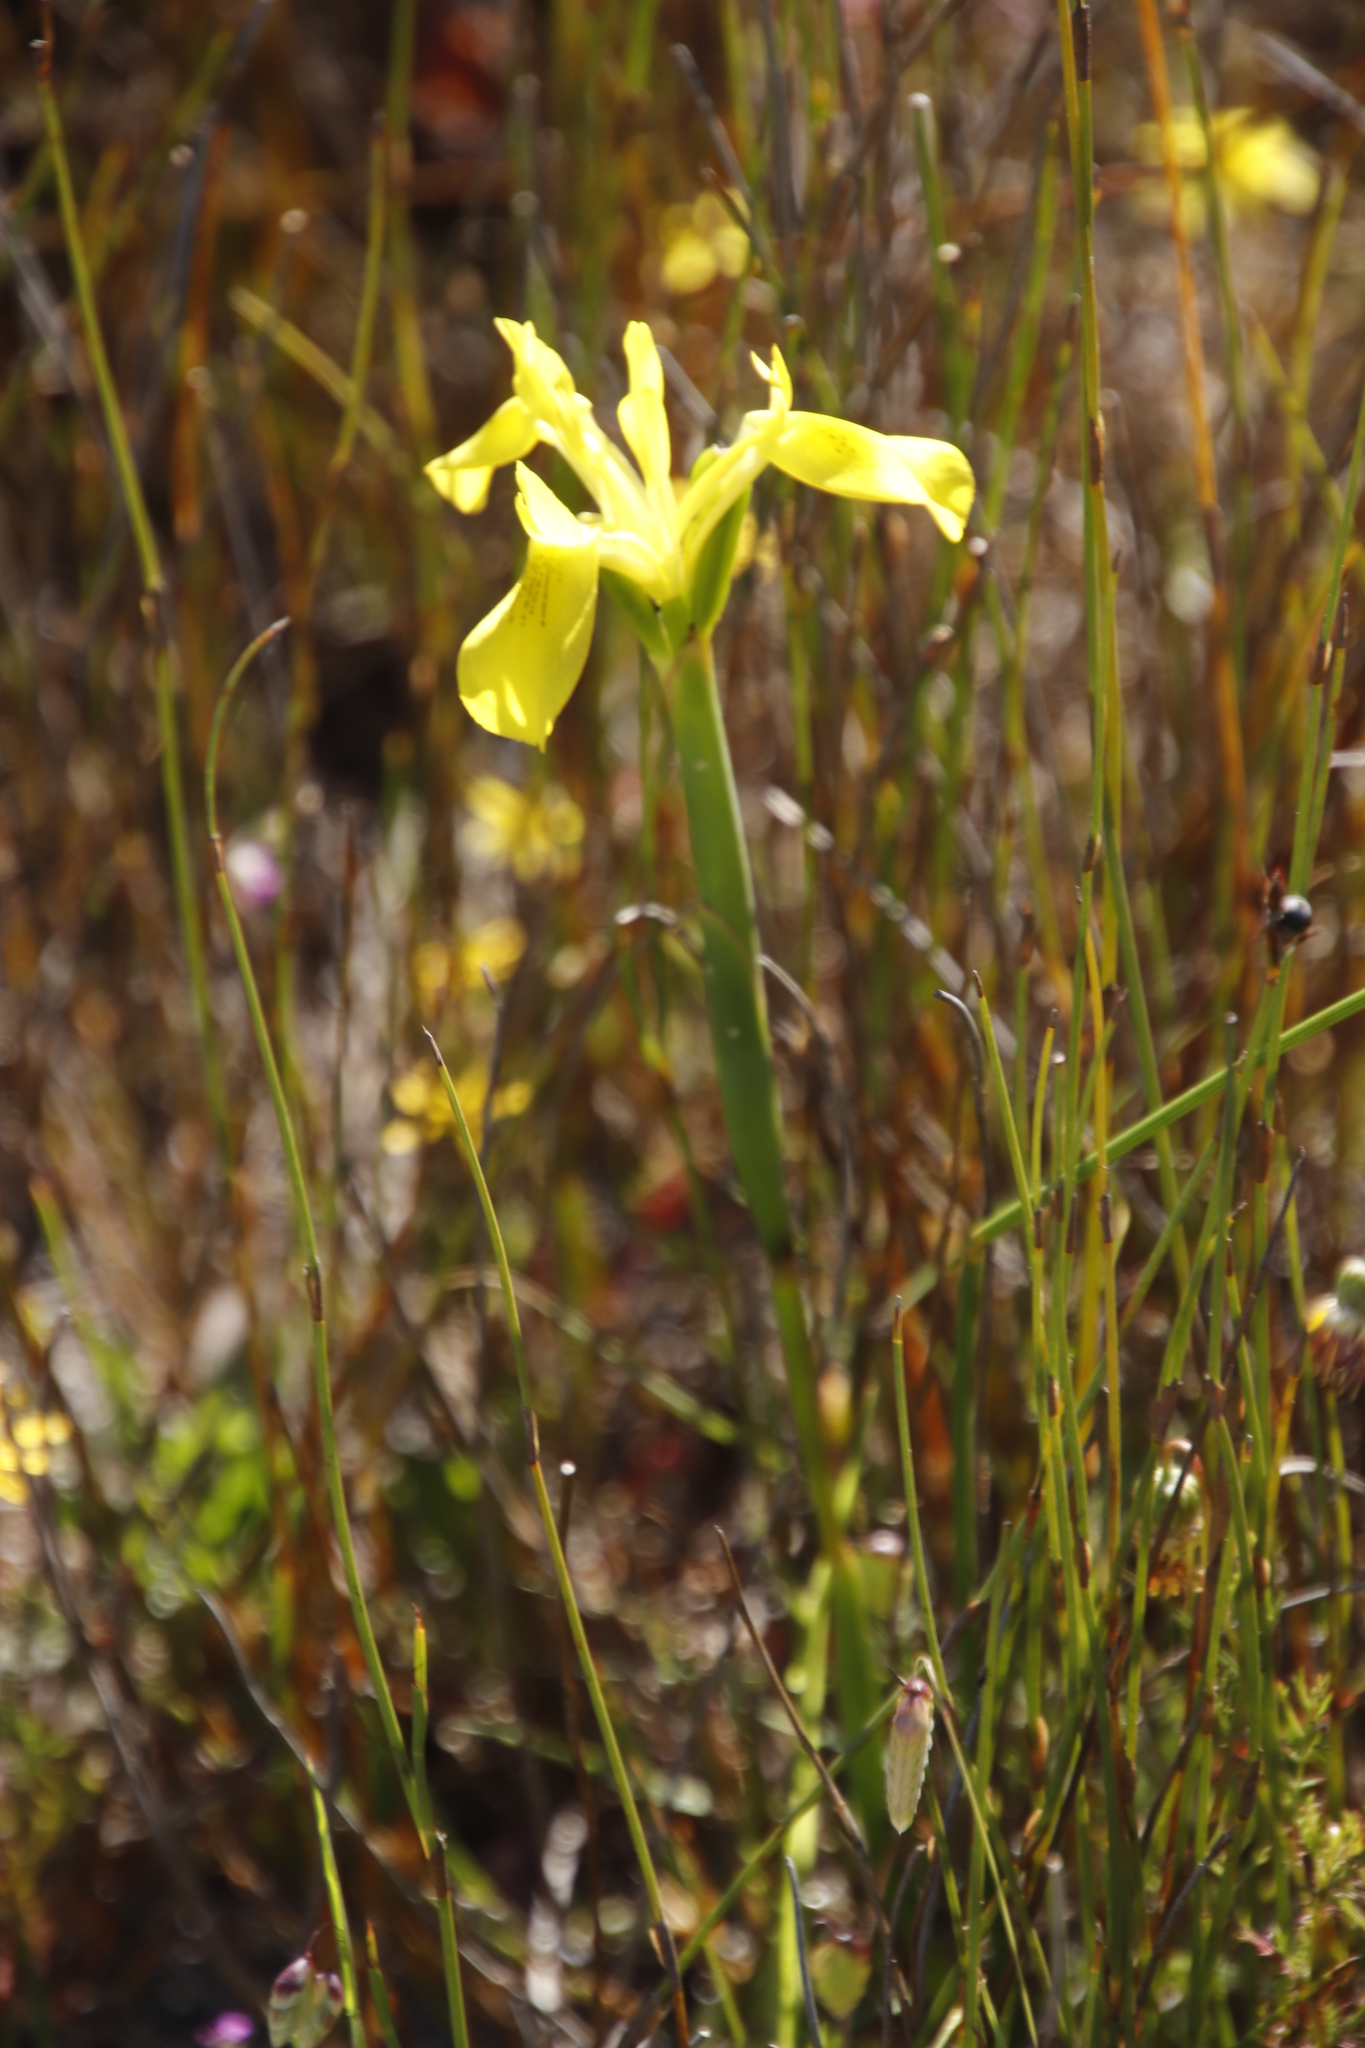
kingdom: Plantae
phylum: Tracheophyta
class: Liliopsida
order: Asparagales
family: Iridaceae
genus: Moraea
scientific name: Moraea neglecta
